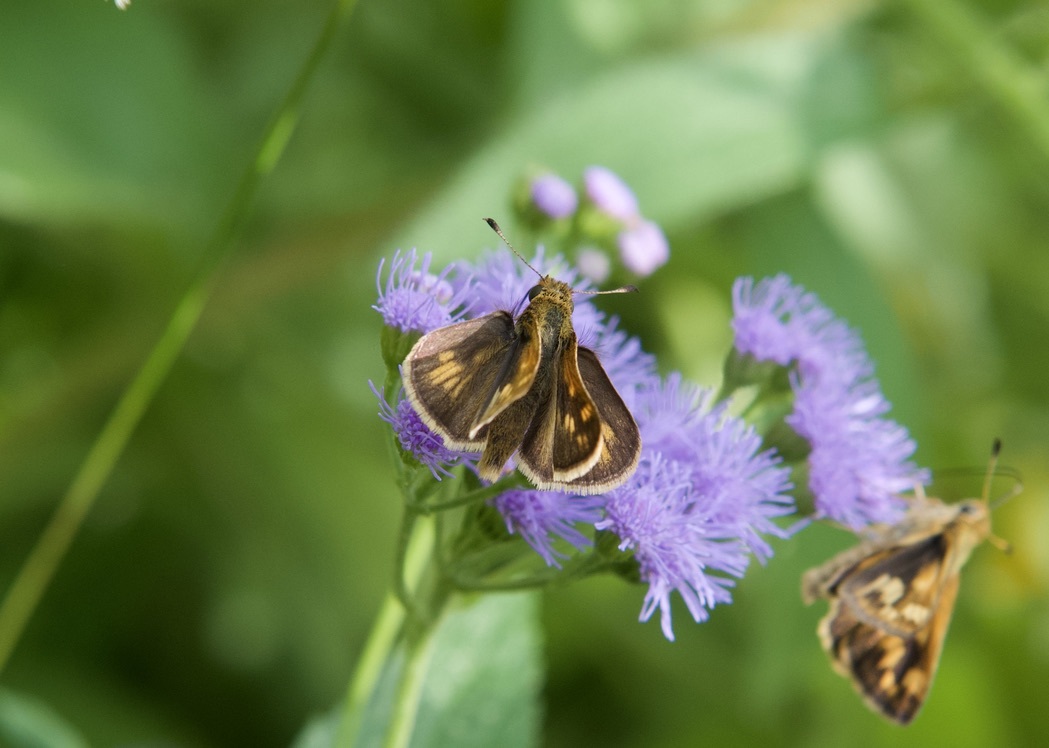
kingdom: Animalia
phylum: Arthropoda
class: Insecta
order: Lepidoptera
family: Hesperiidae
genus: Polites
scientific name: Polites coras
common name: Peck's skipper
